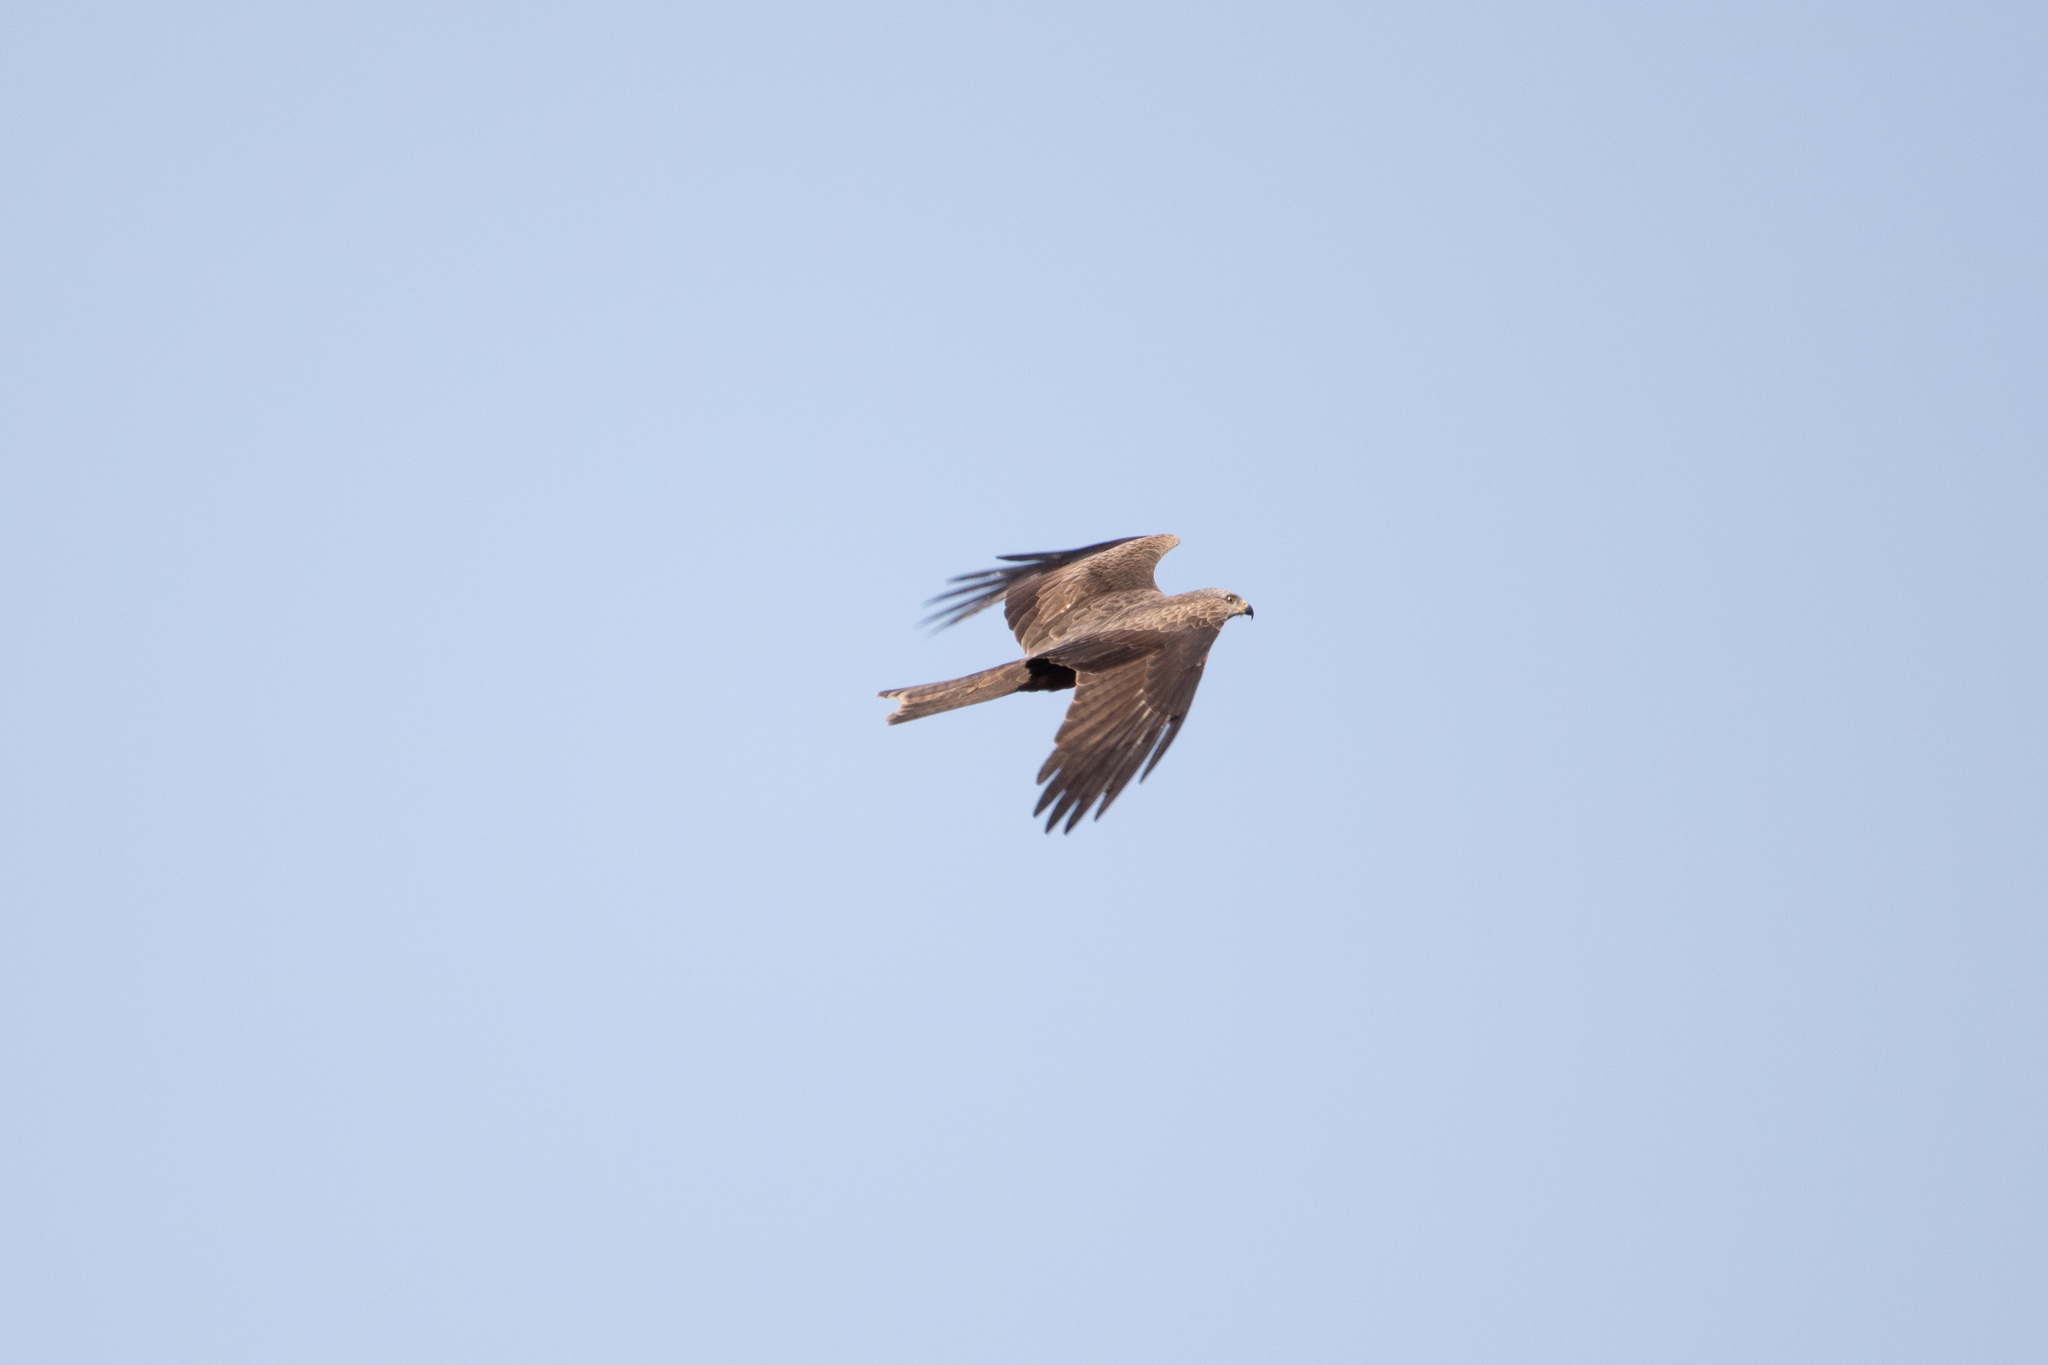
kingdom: Animalia
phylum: Chordata
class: Aves
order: Accipitriformes
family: Accipitridae
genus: Milvus
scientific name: Milvus migrans
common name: Black kite
